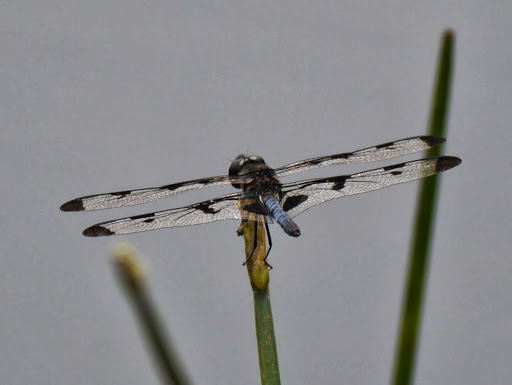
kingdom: Animalia
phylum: Arthropoda
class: Insecta
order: Odonata
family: Libellulidae
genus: Celithemis
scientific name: Celithemis fasciata
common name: Banded pennant
